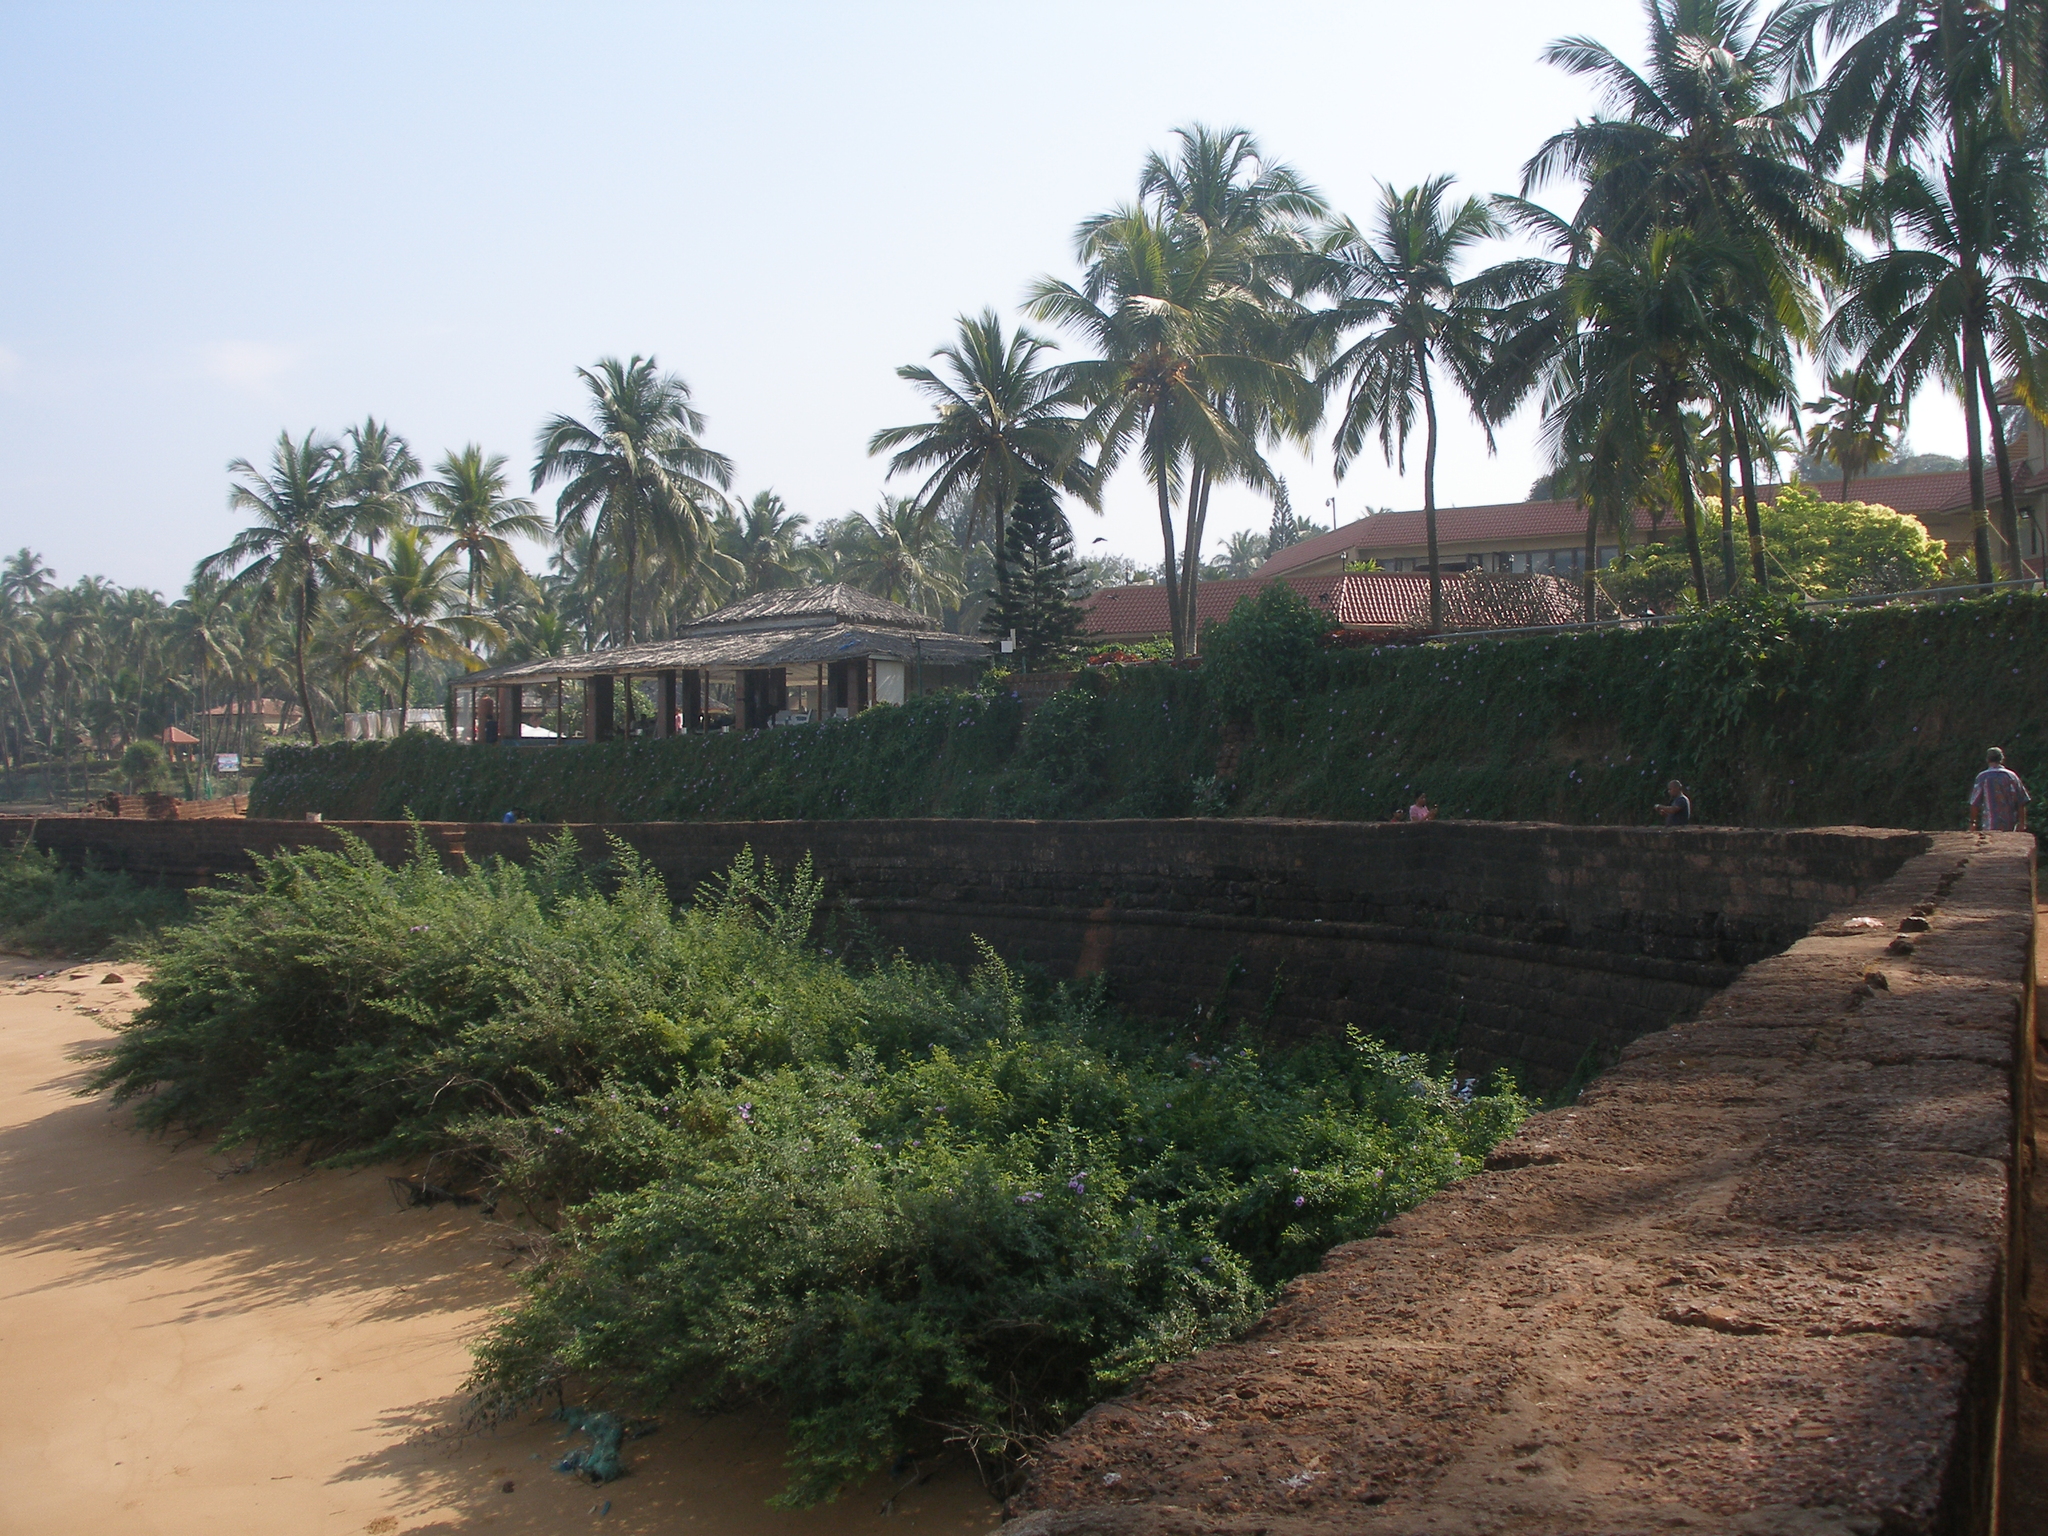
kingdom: Plantae
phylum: Tracheophyta
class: Liliopsida
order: Arecales
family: Arecaceae
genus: Cocos
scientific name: Cocos nucifera
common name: Coconut palm
